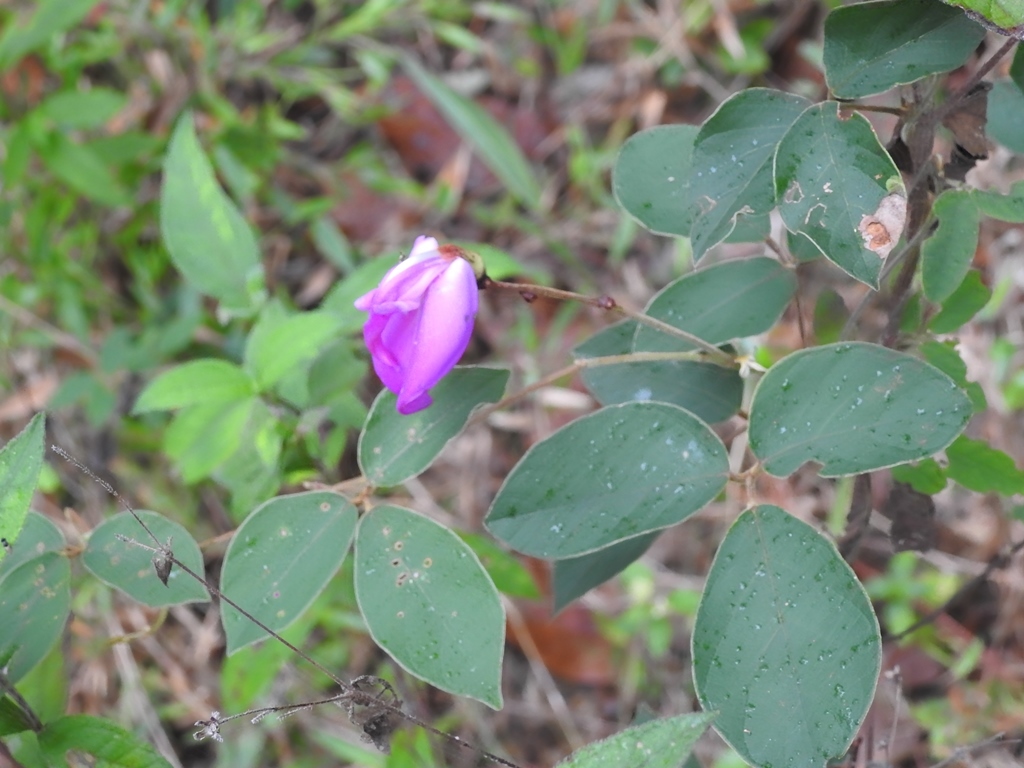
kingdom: Plantae
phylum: Tracheophyta
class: Magnoliopsida
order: Fabales
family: Fabaceae
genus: Canavalia
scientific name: Canavalia hirsutissima
